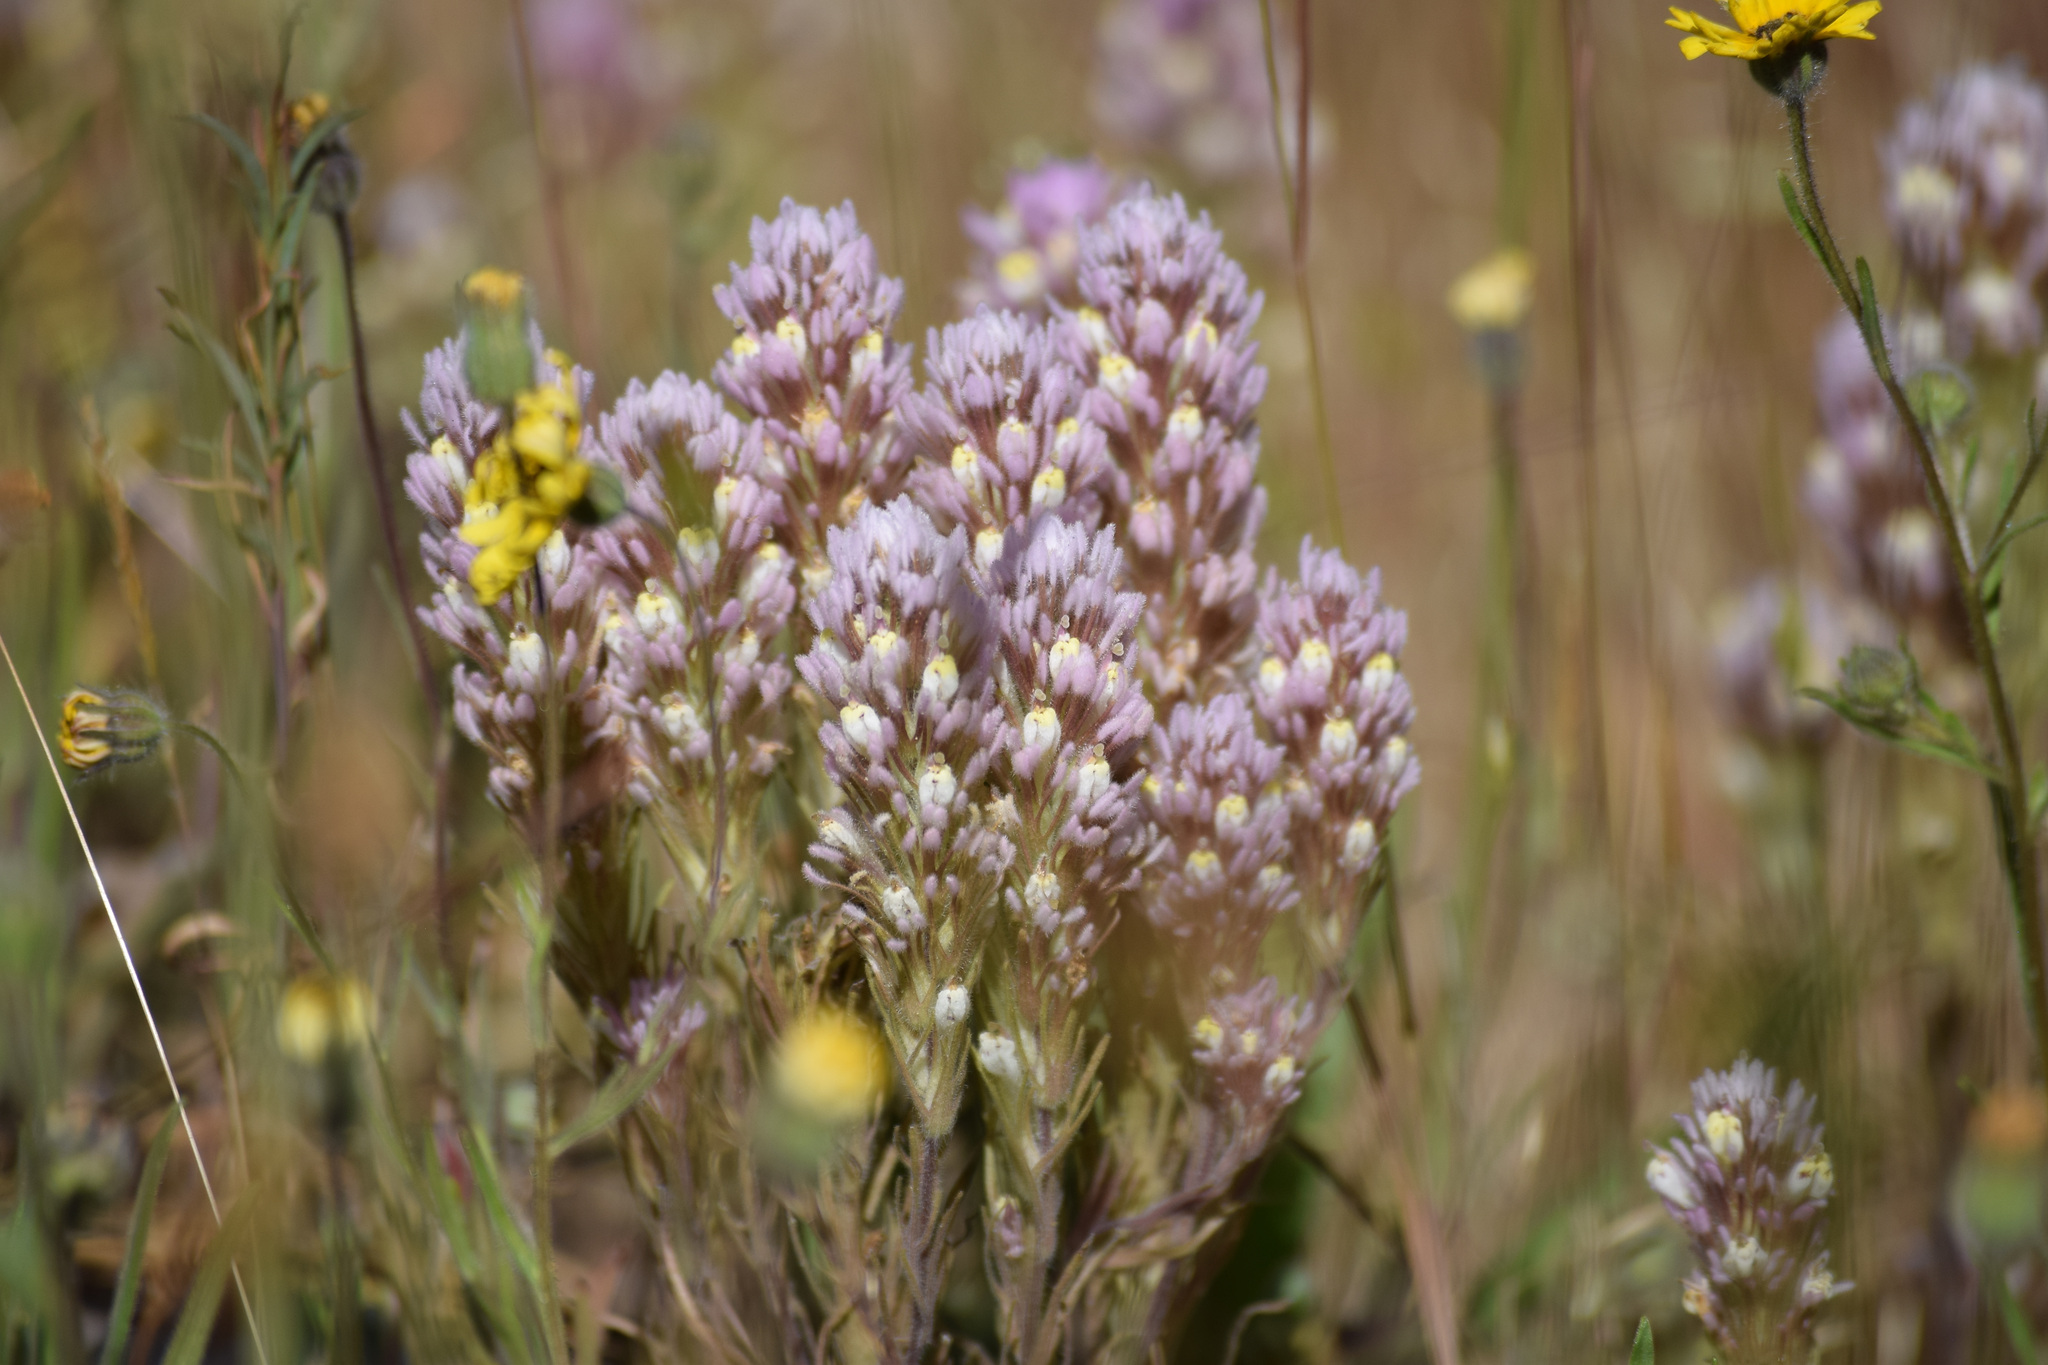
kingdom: Plantae
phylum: Tracheophyta
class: Magnoliopsida
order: Lamiales
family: Orobanchaceae
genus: Castilleja
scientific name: Castilleja lineariloba
